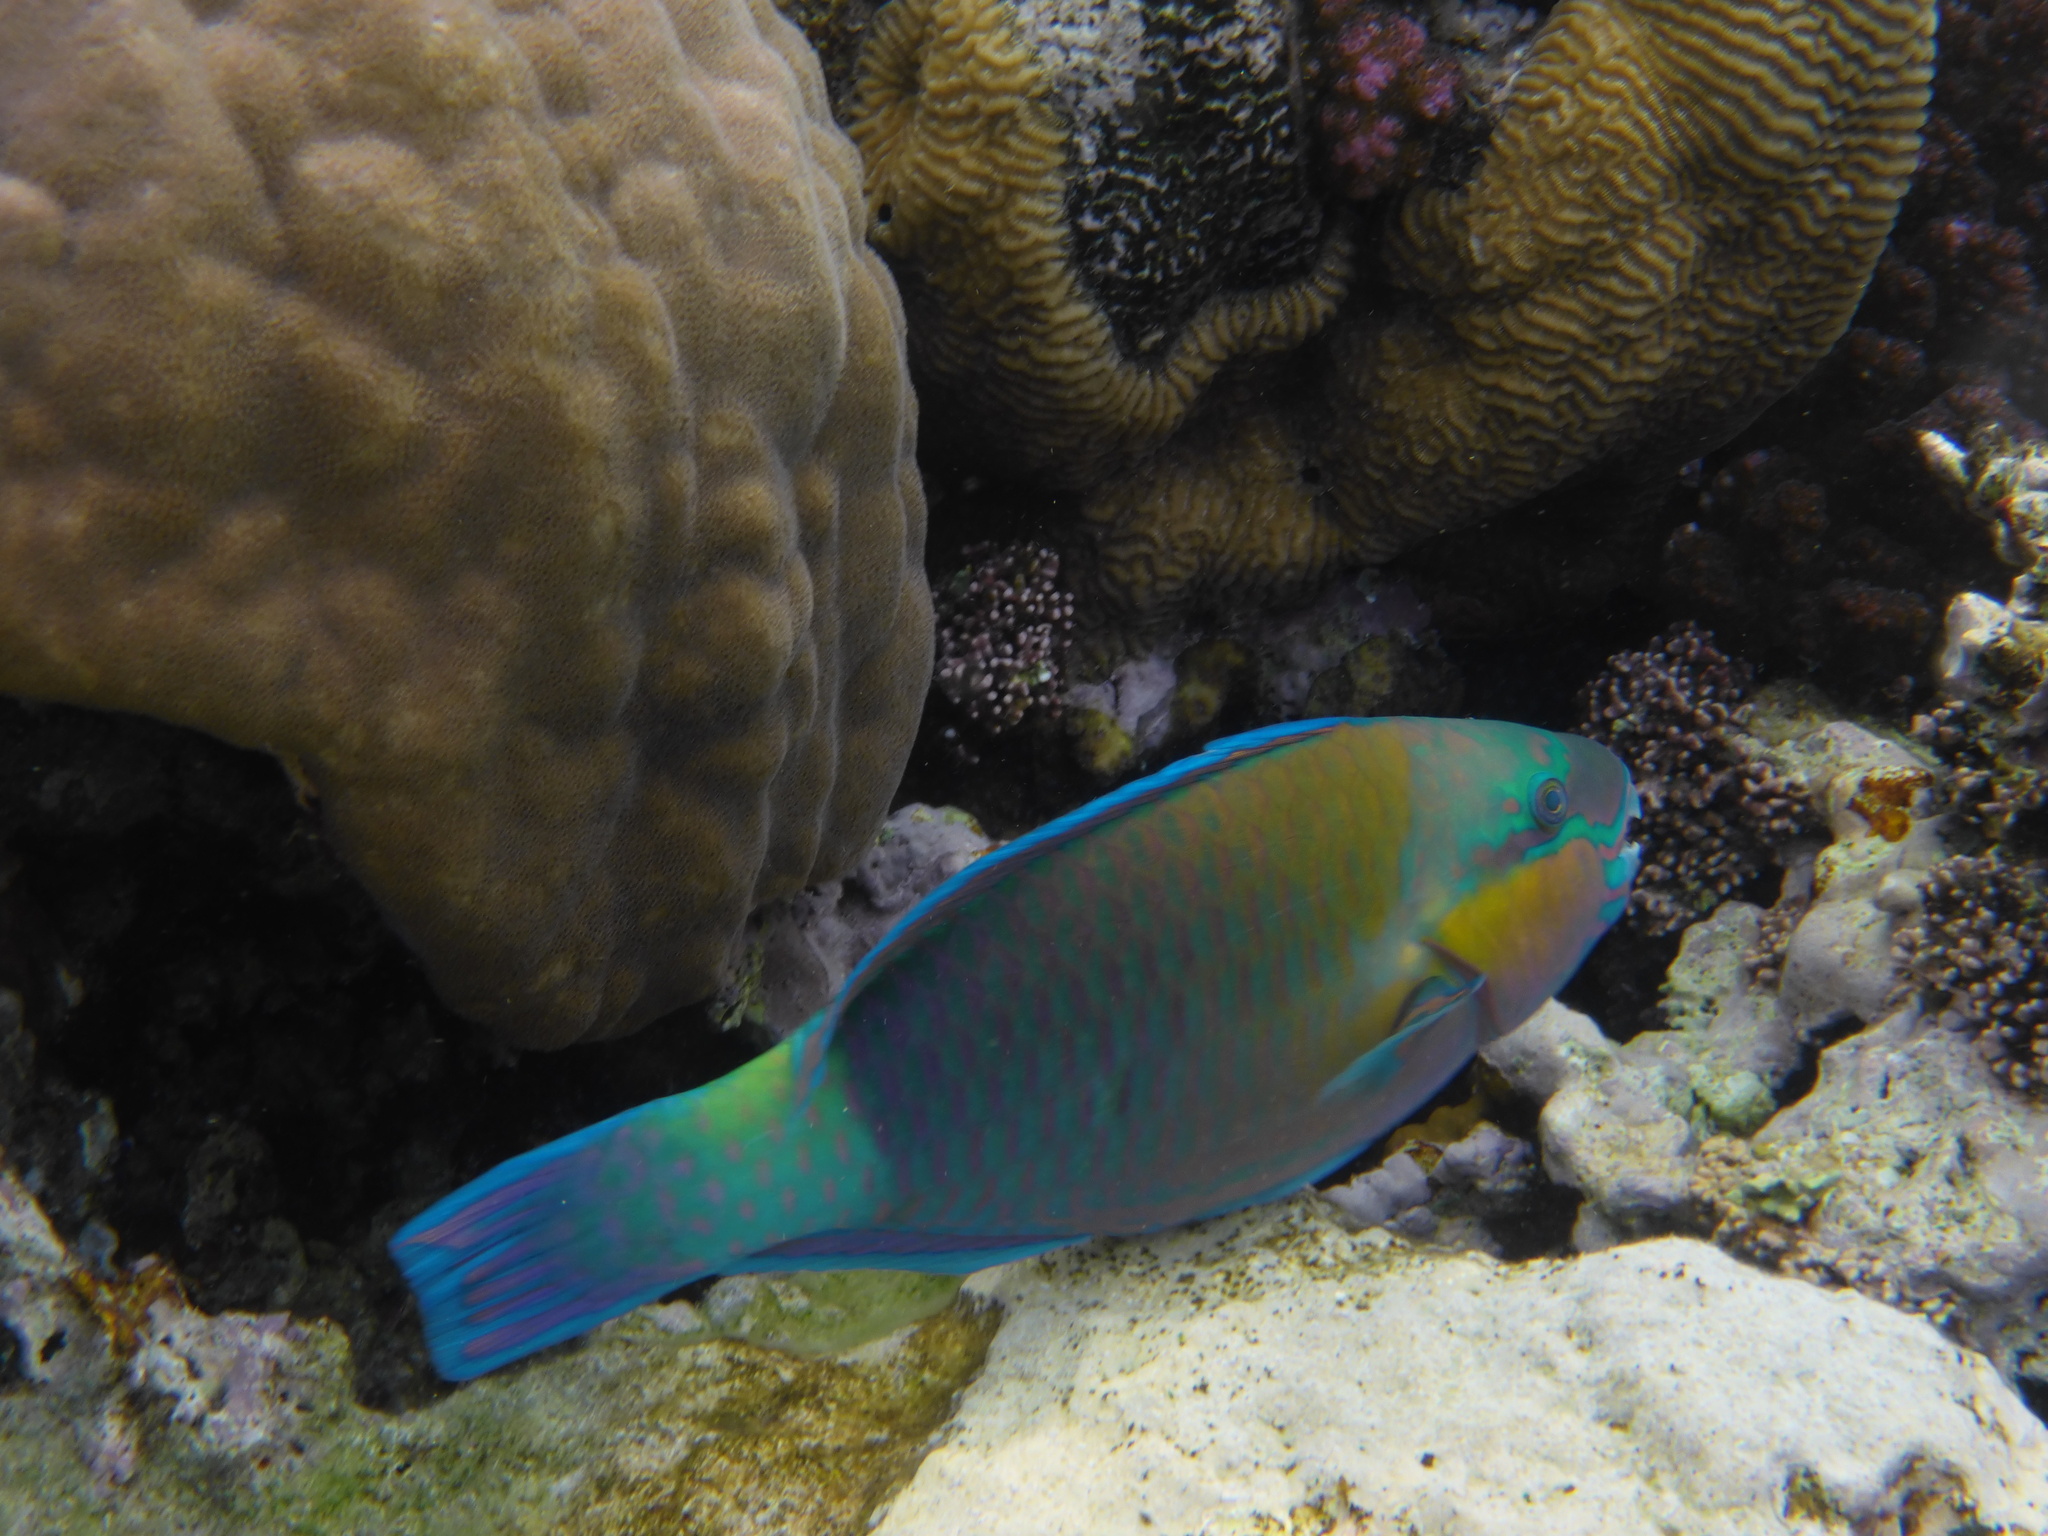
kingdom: Animalia
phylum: Chordata
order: Perciformes
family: Scaridae
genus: Chlorurus
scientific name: Chlorurus sordidus
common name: Bullethead parrotfish
